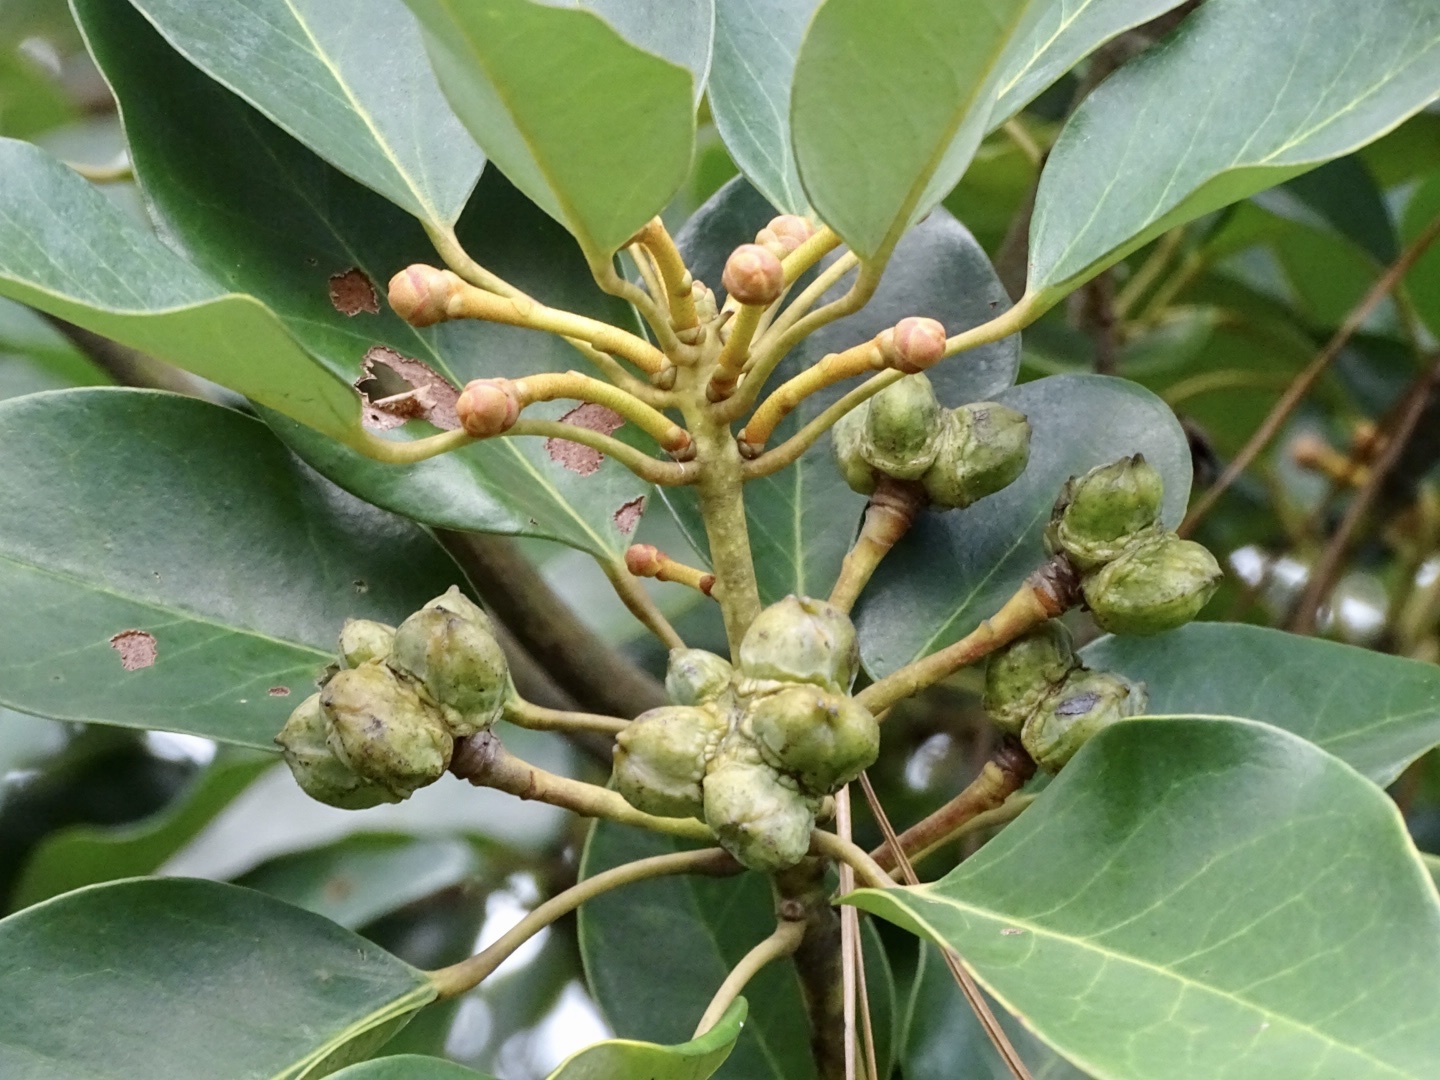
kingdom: Plantae
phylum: Tracheophyta
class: Magnoliopsida
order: Saxifragales
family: Hamamelidaceae
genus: Rhodoleia
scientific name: Rhodoleia championii
